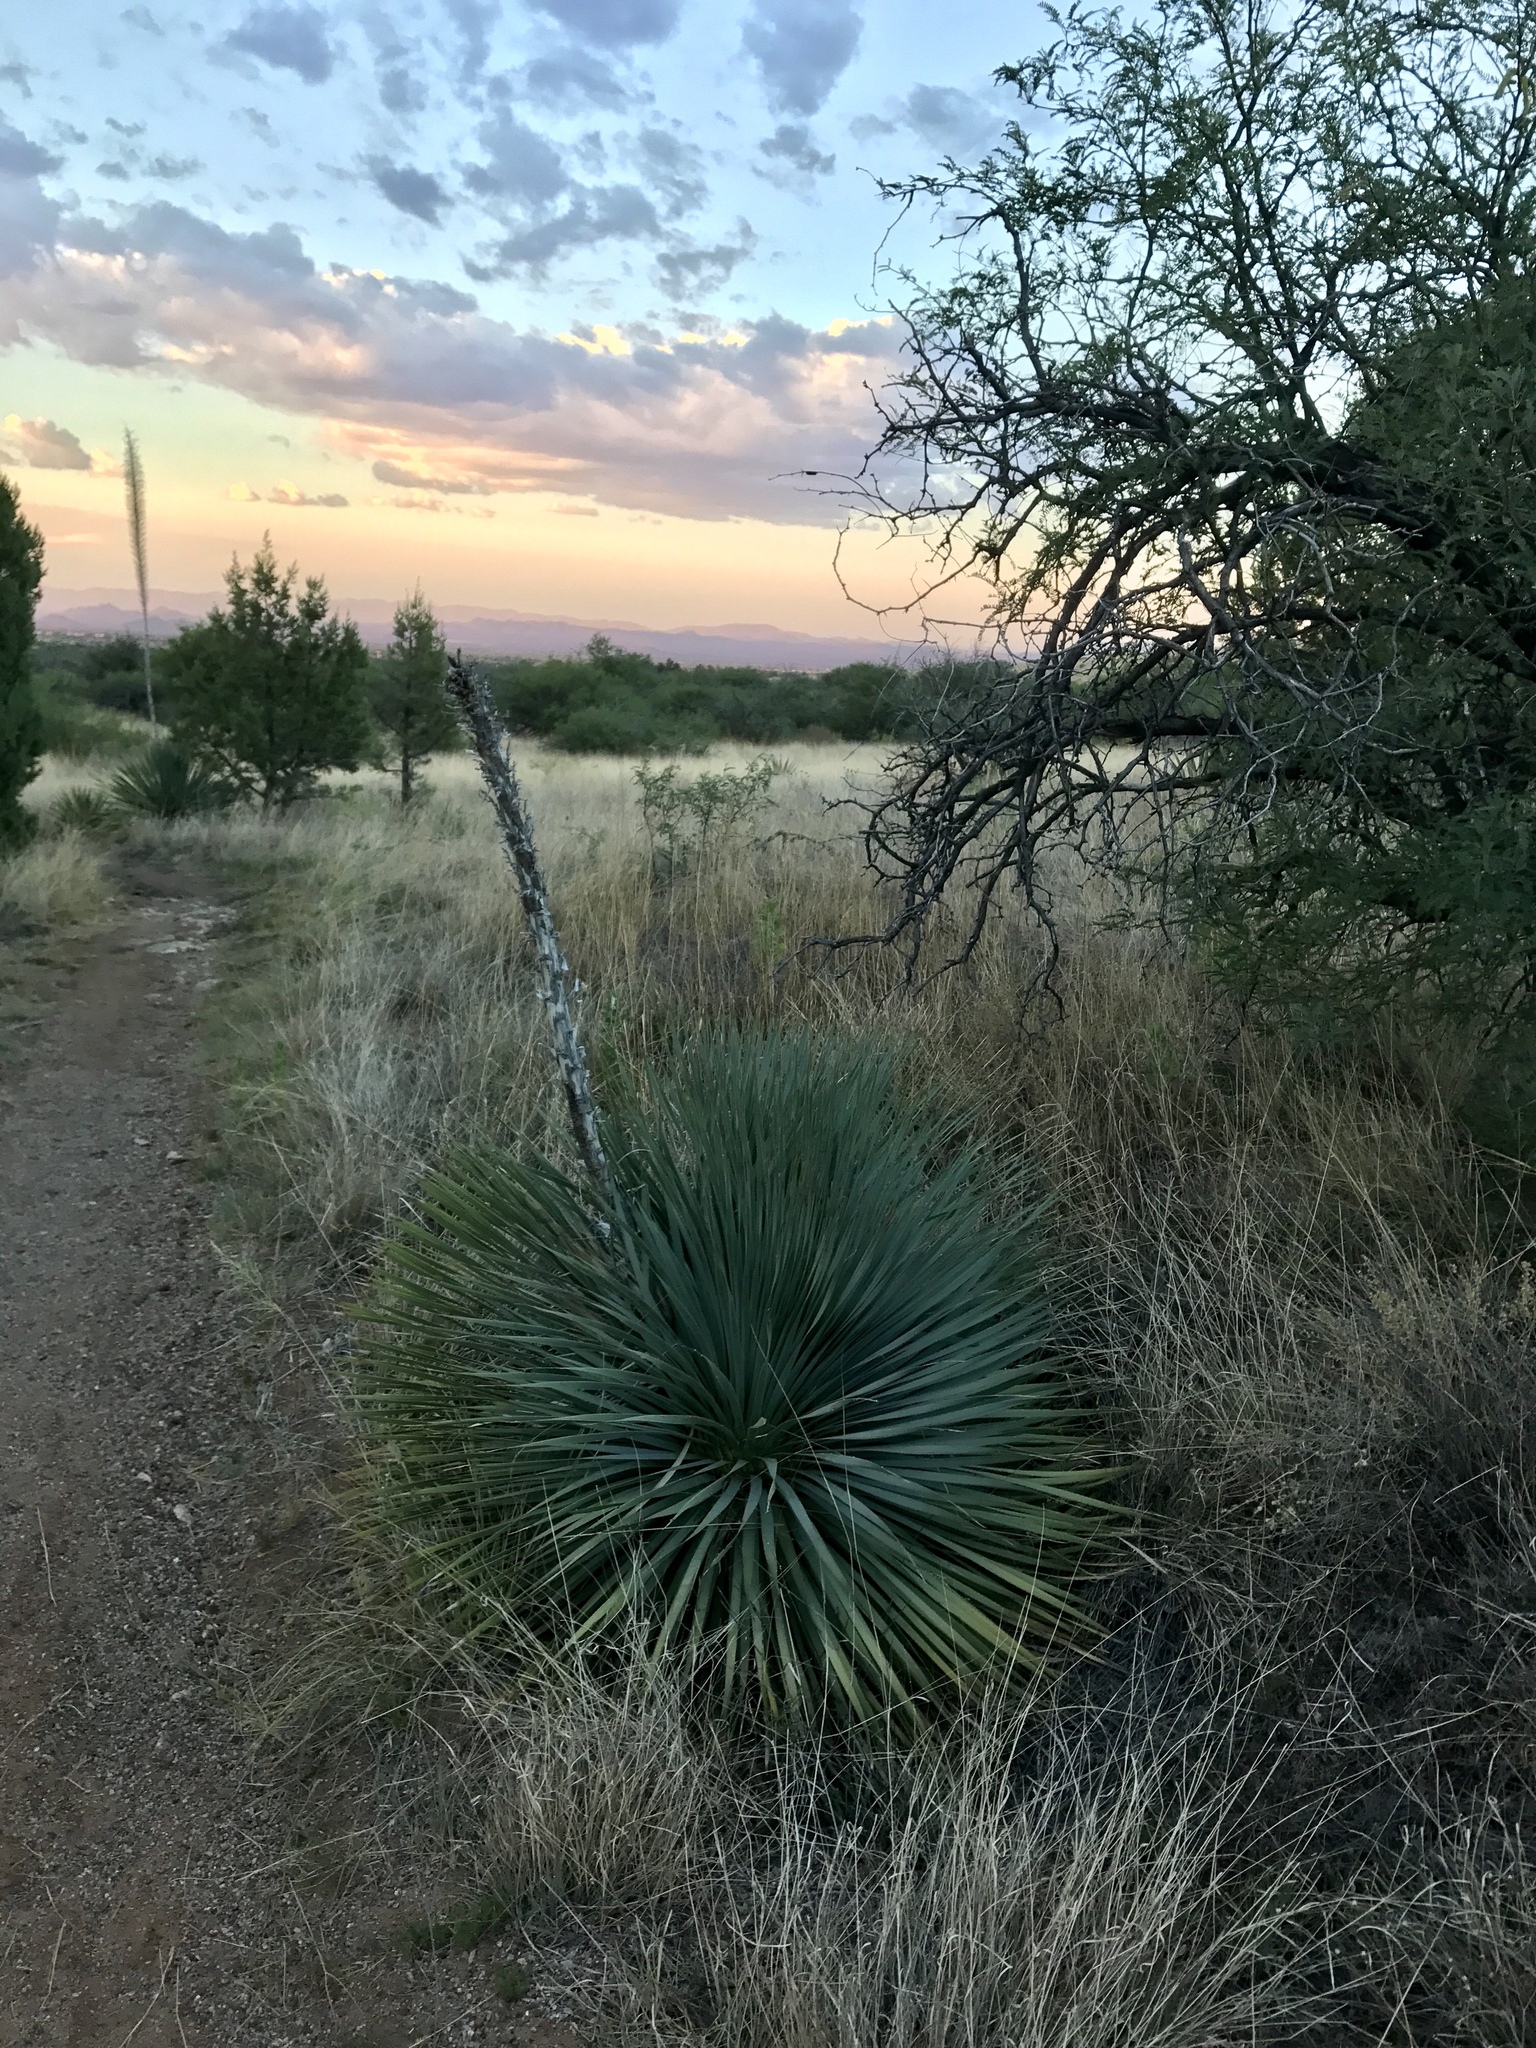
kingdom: Plantae
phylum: Tracheophyta
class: Liliopsida
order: Asparagales
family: Asparagaceae
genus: Dasylirion
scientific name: Dasylirion wheeleri
